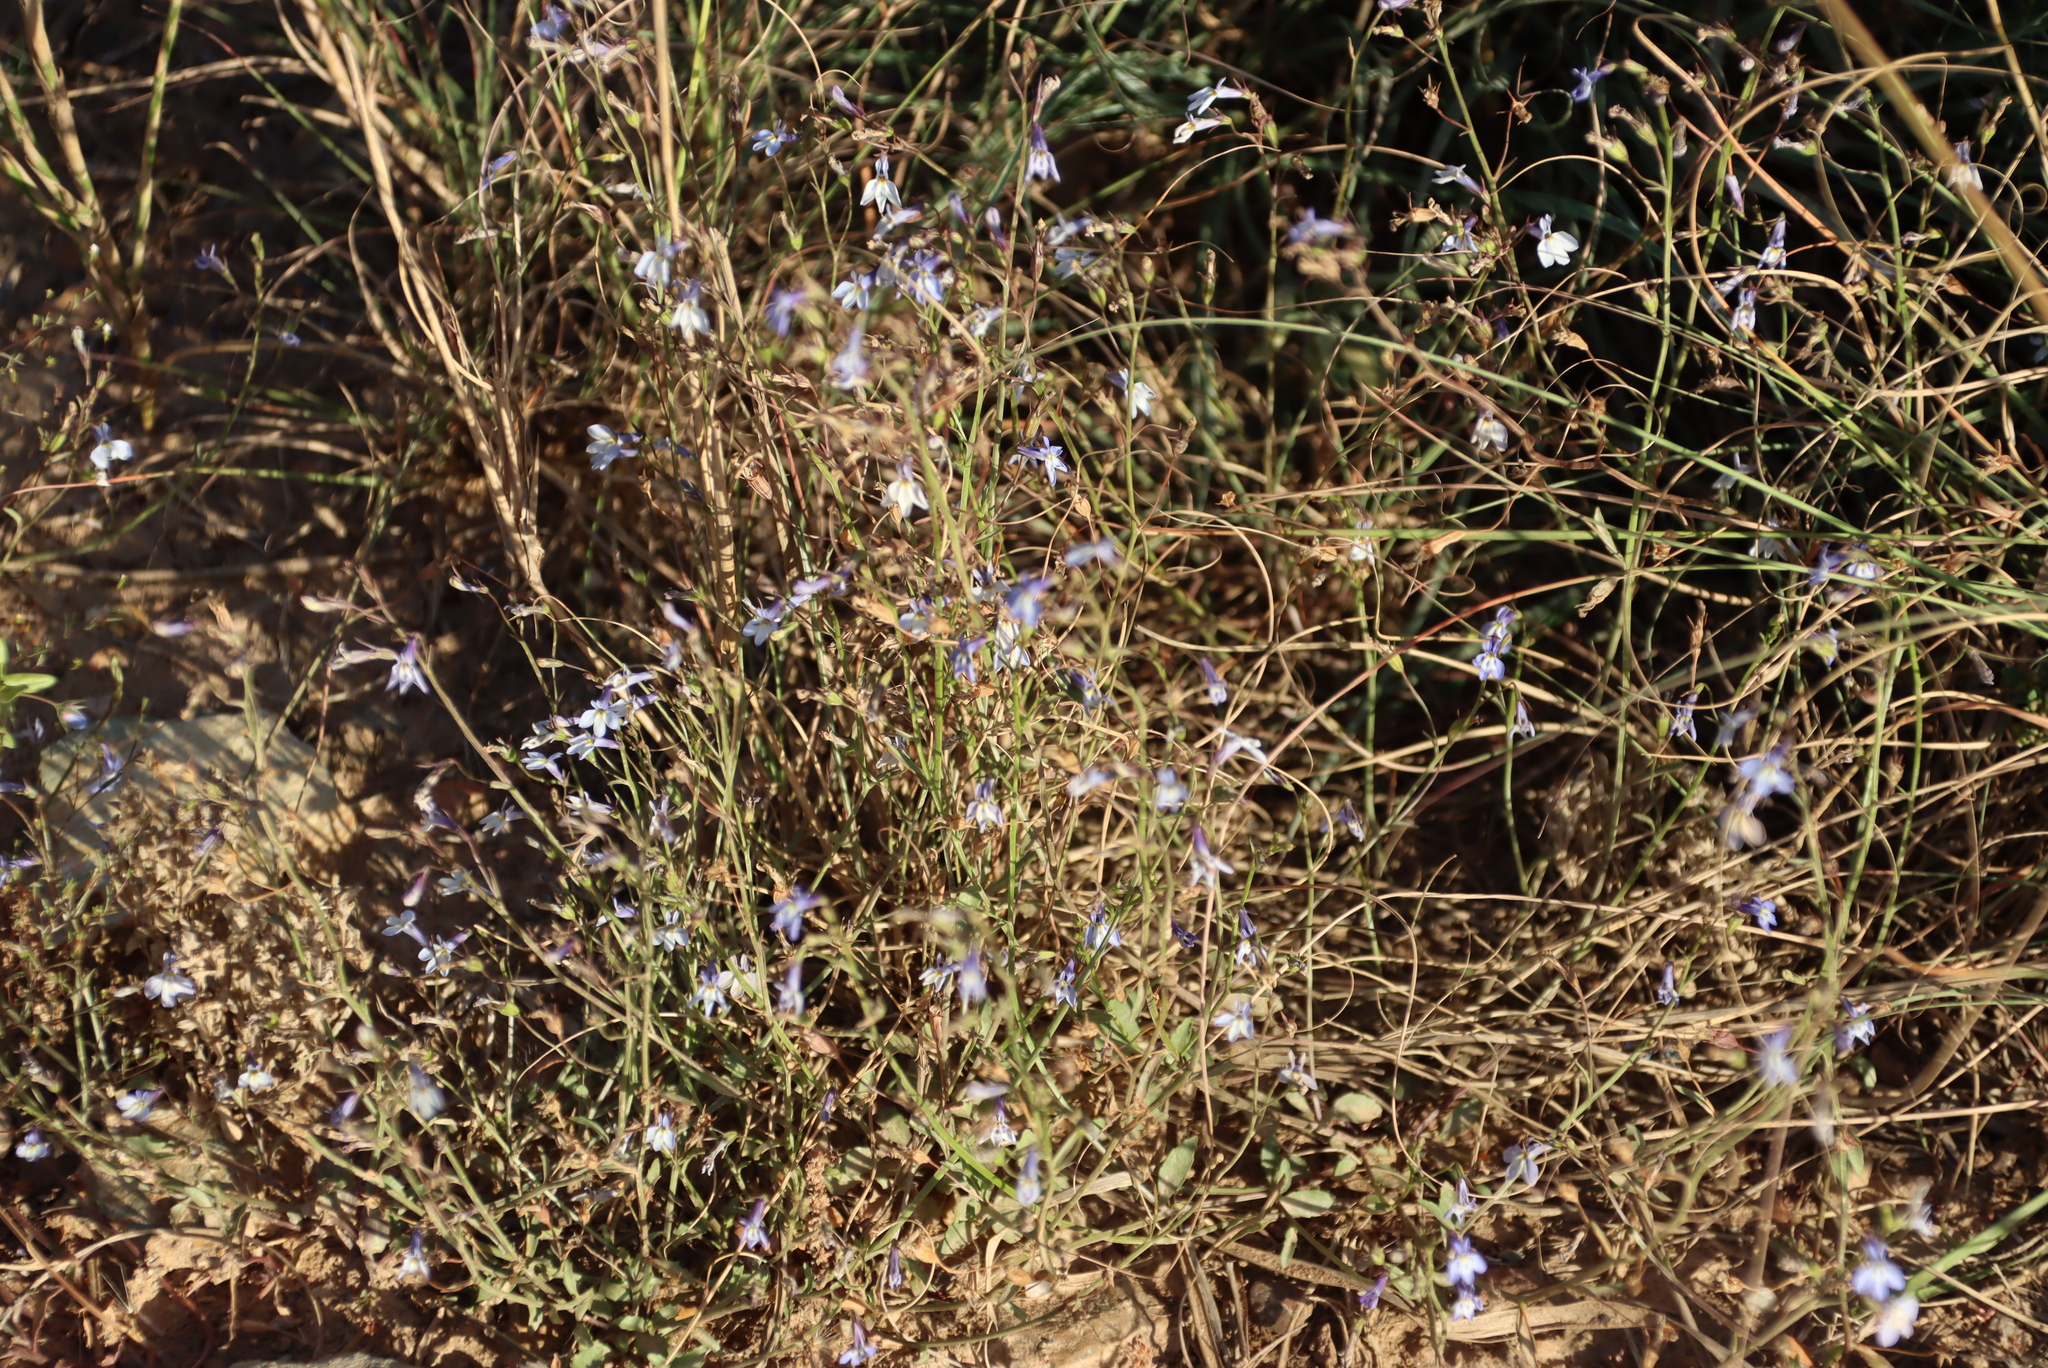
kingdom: Plantae
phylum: Tracheophyta
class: Magnoliopsida
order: Asterales
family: Campanulaceae
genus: Lobelia
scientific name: Lobelia erinus
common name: Edging lobelia
